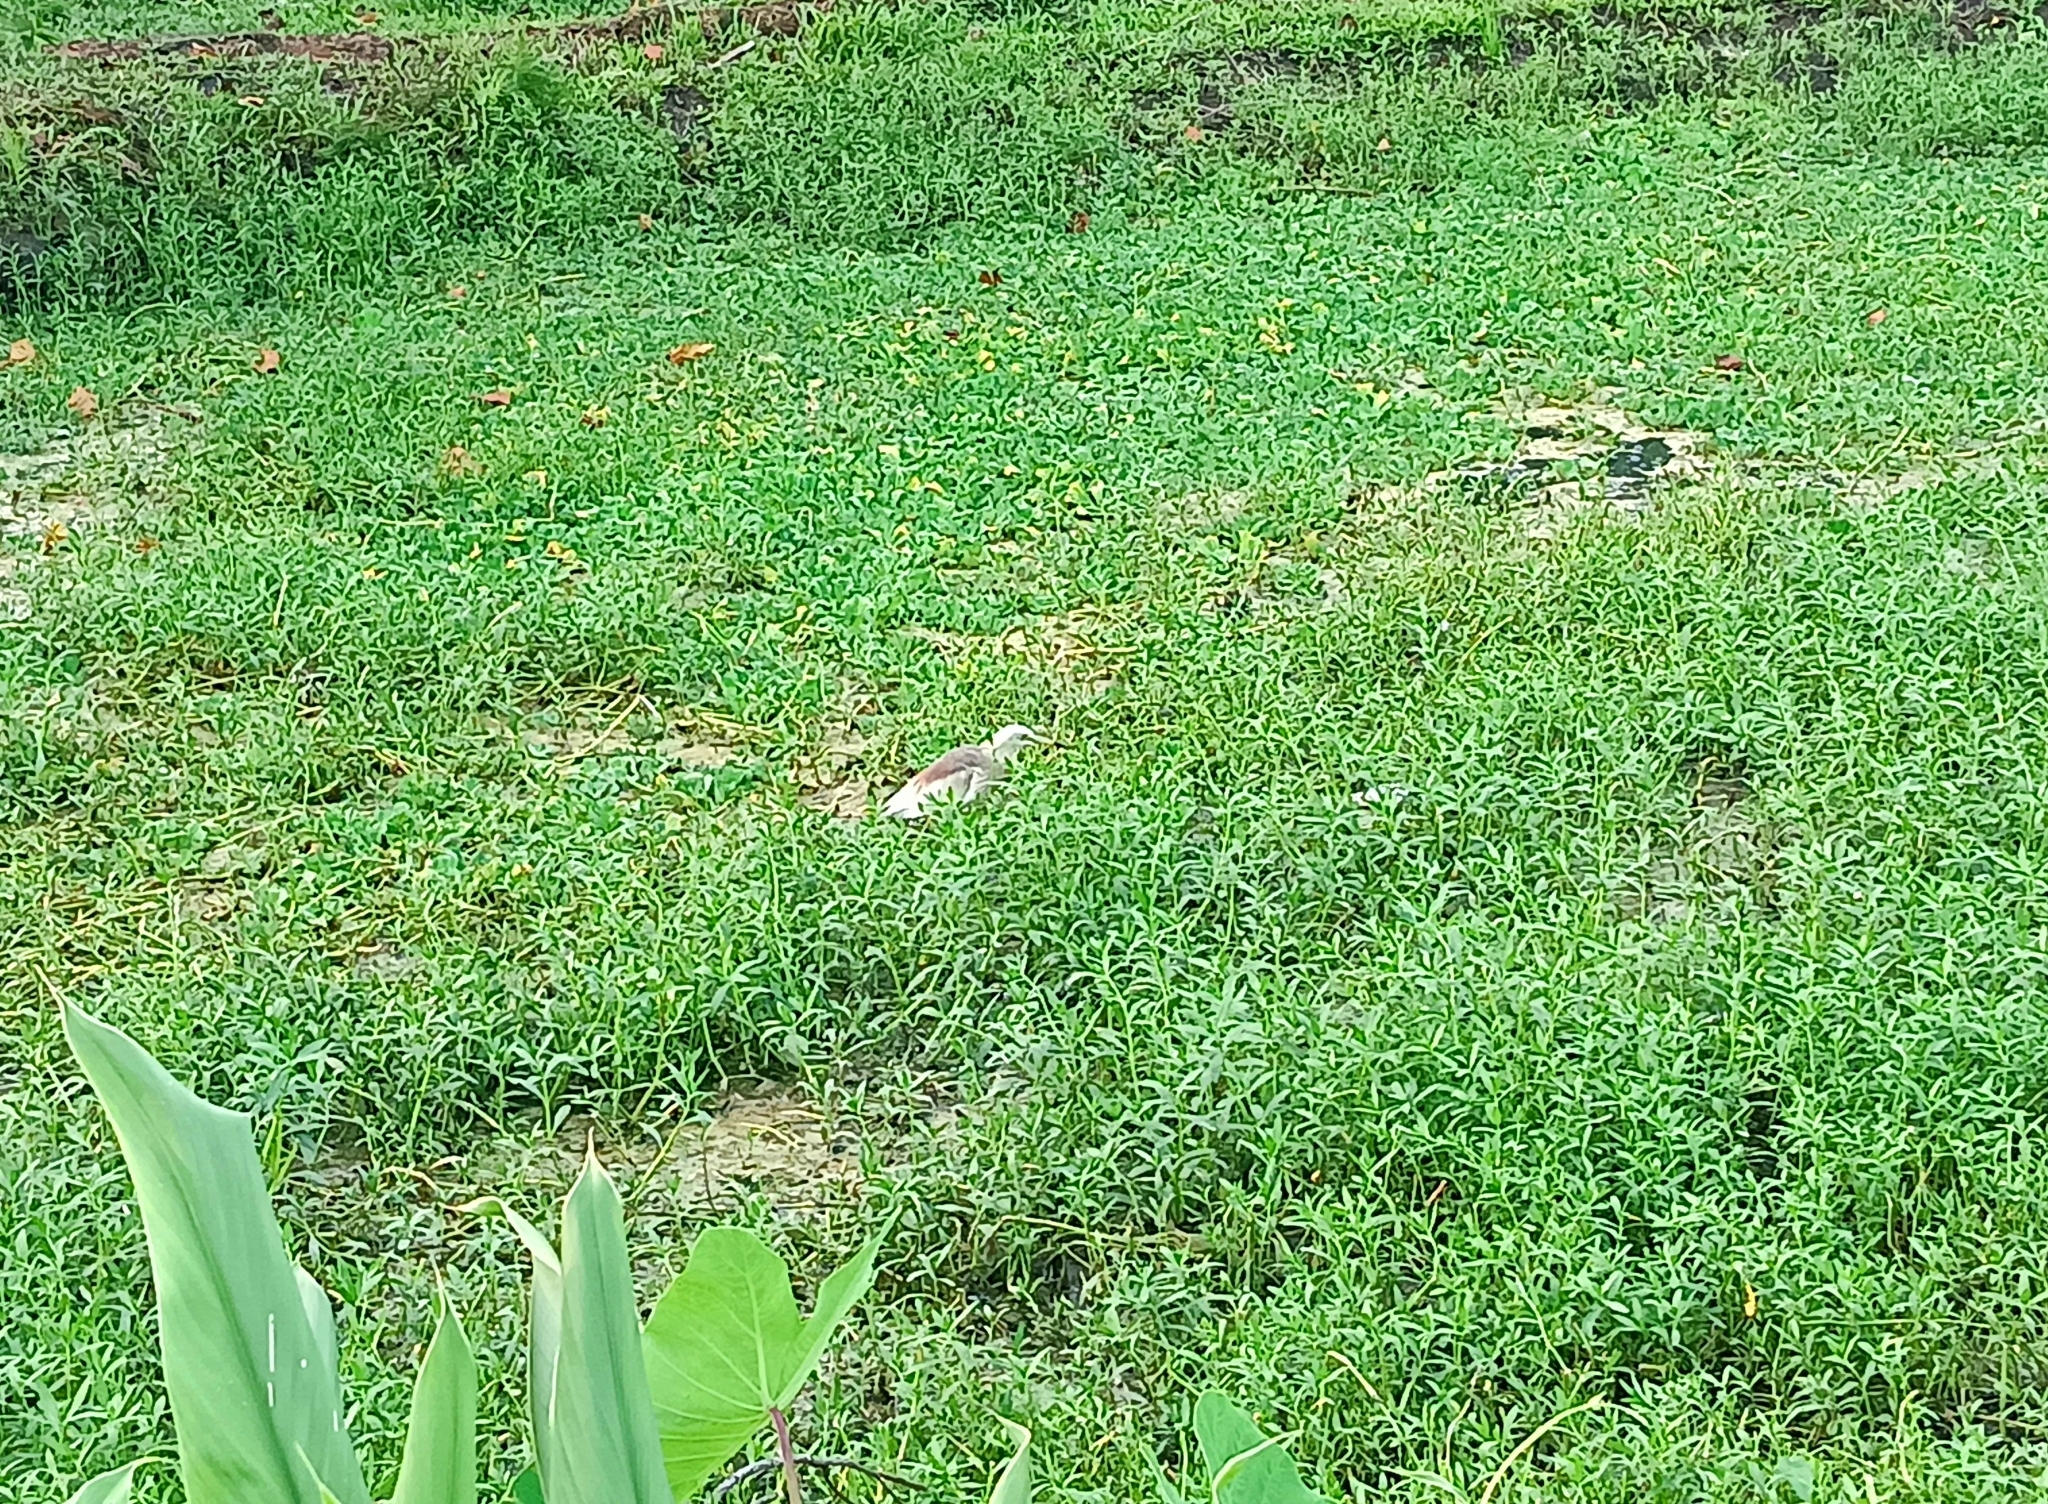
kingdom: Animalia
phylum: Chordata
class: Aves
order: Pelecaniformes
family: Ardeidae
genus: Ardeola
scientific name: Ardeola grayii
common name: Indian pond heron
